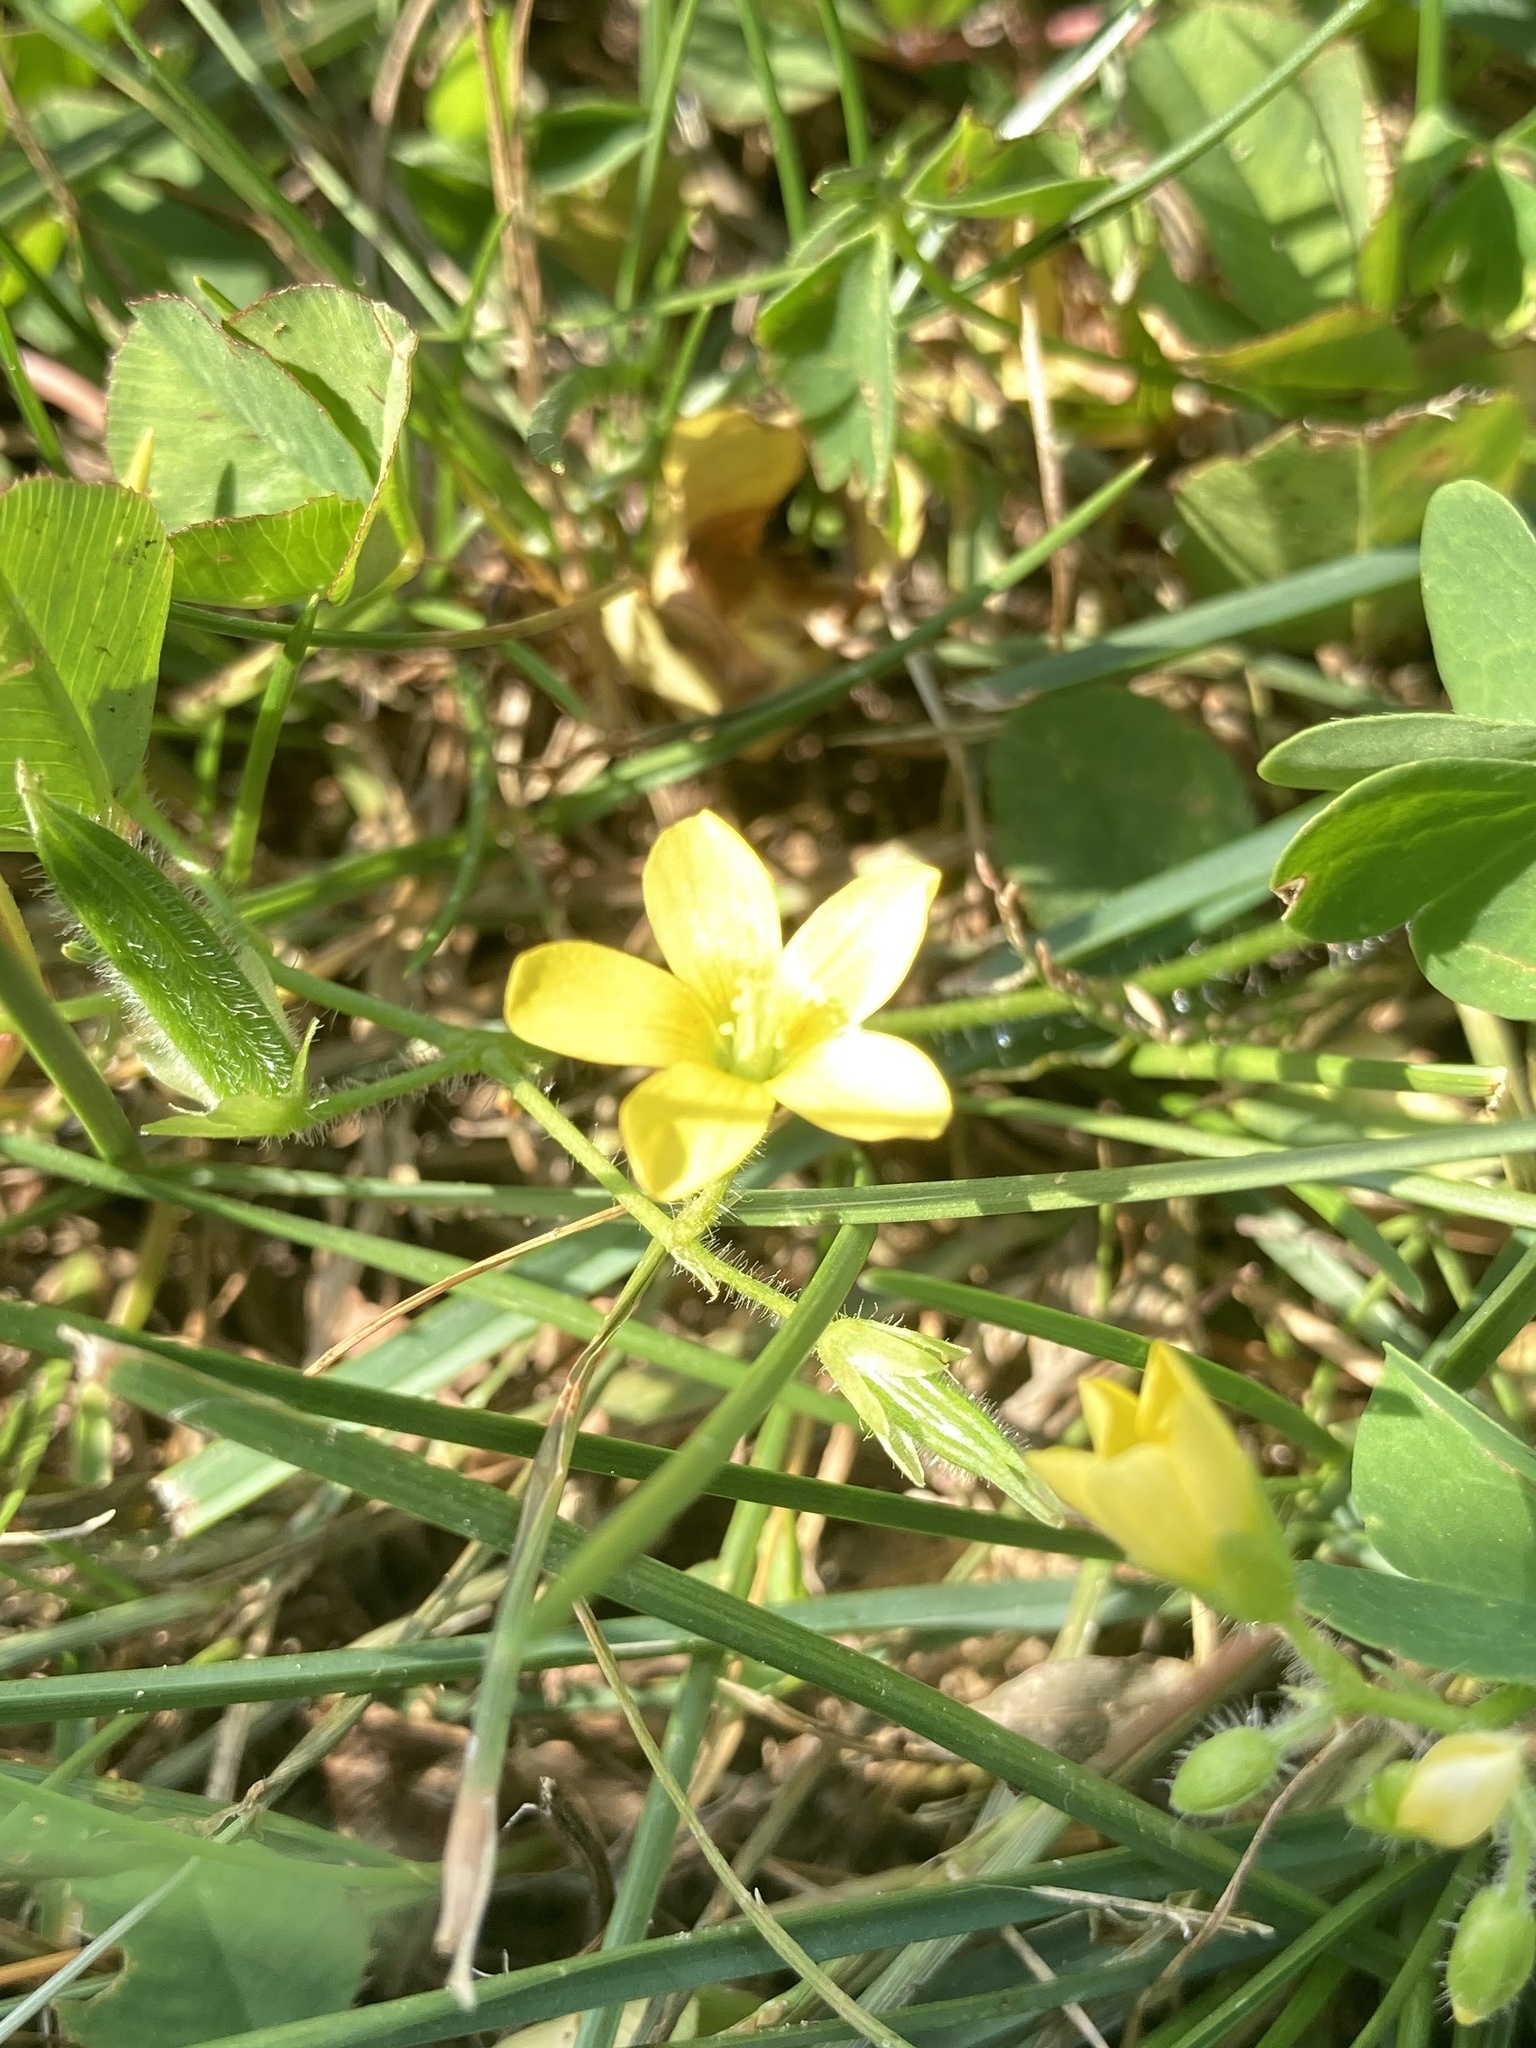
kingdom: Plantae
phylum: Tracheophyta
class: Magnoliopsida
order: Oxalidales
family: Oxalidaceae
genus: Oxalis
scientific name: Oxalis corniculata
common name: Procumbent yellow-sorrel
